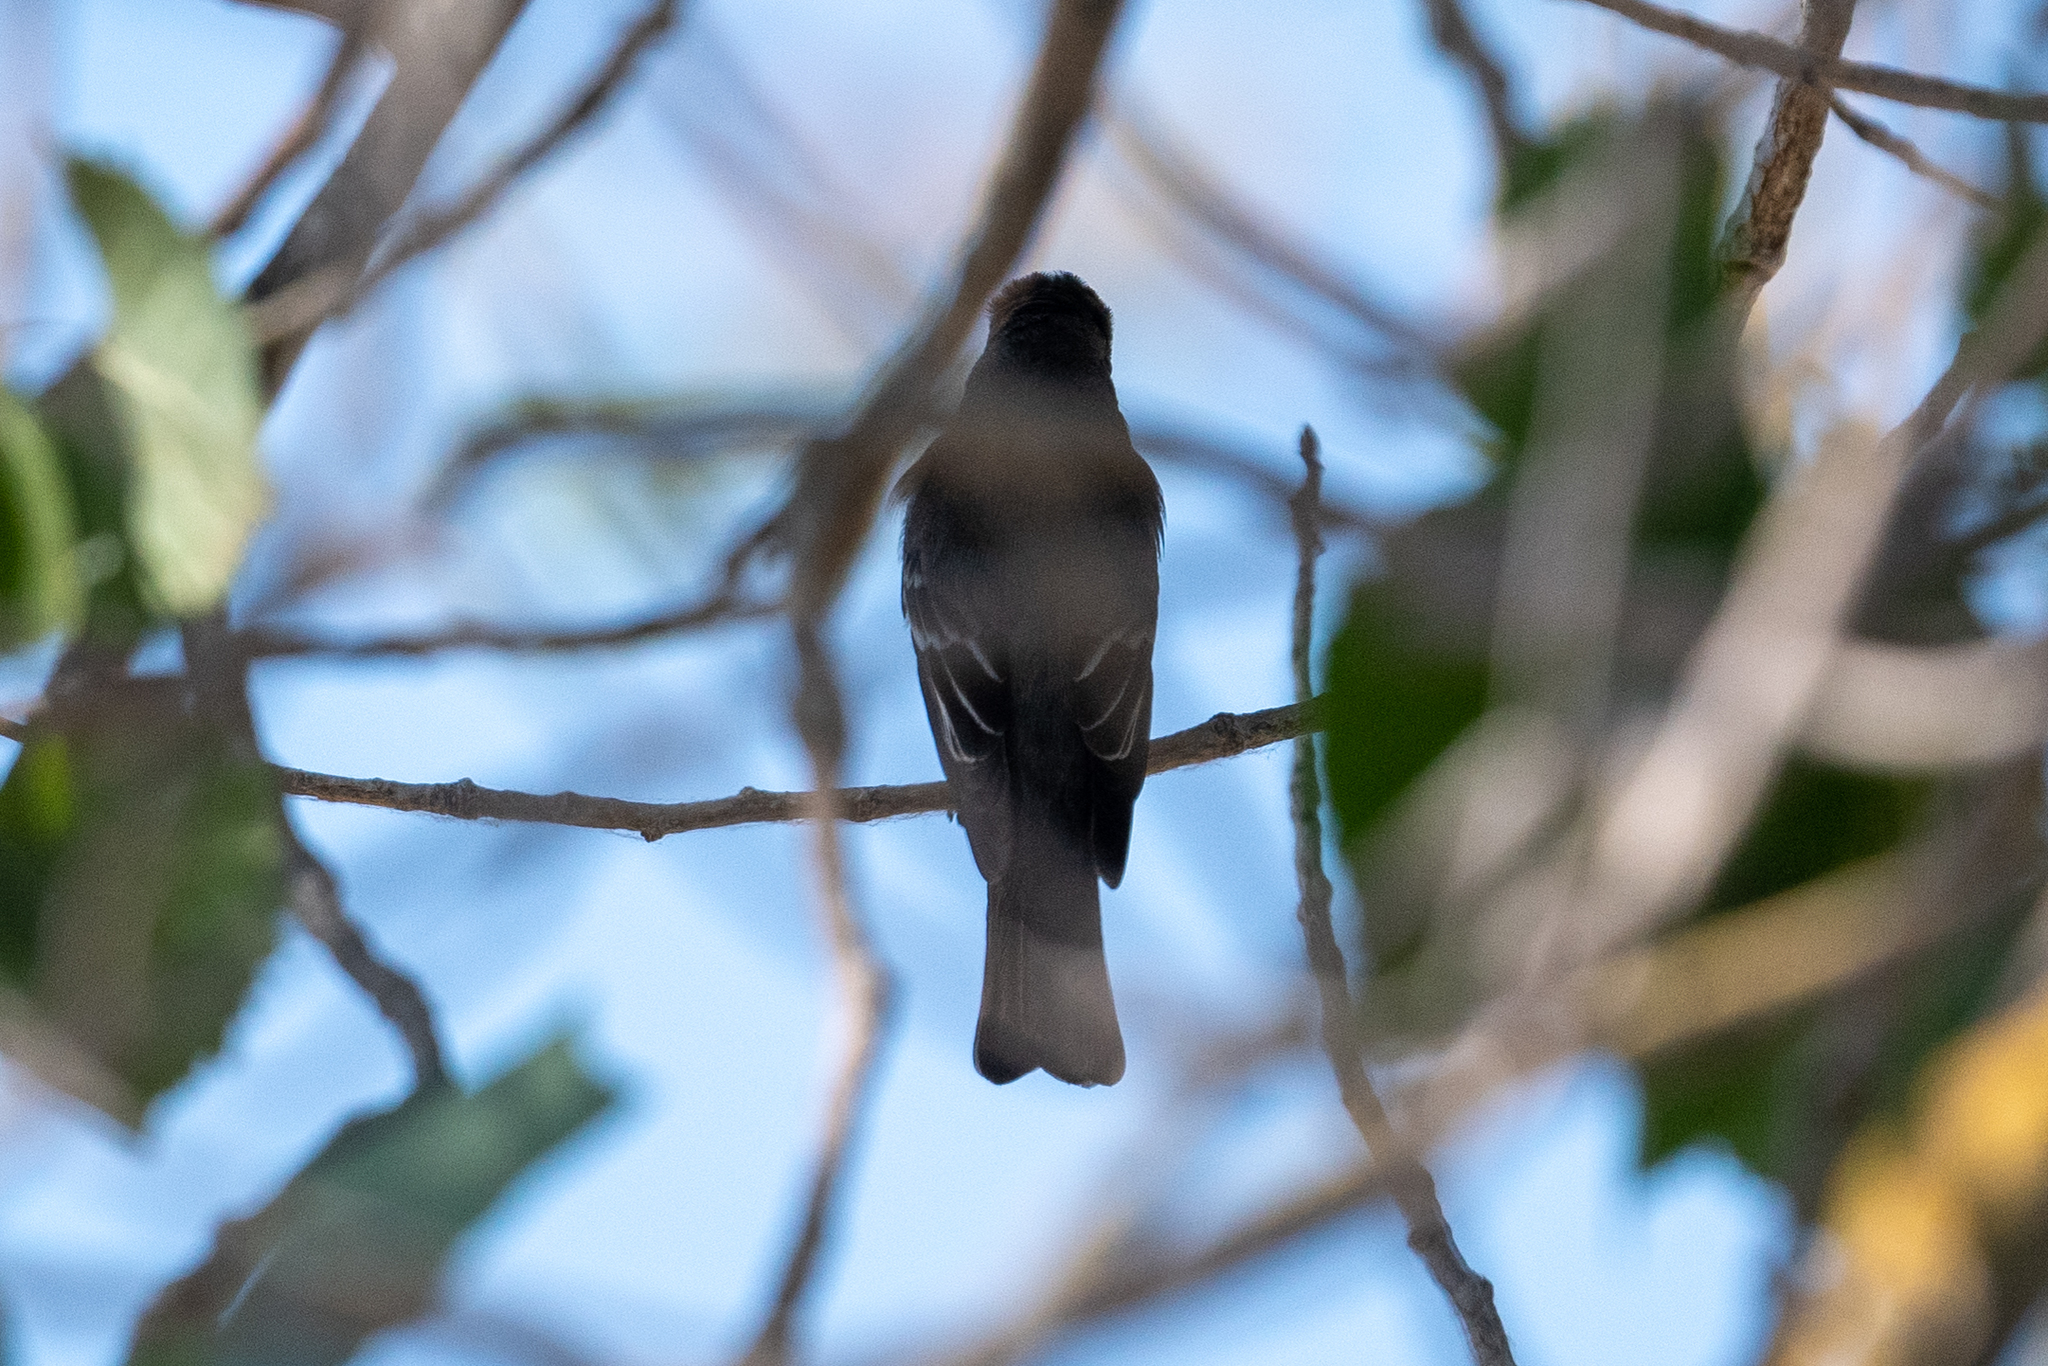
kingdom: Animalia
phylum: Chordata
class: Aves
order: Passeriformes
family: Tyrannidae
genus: Contopus
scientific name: Contopus sordidulus
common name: Western wood-pewee
